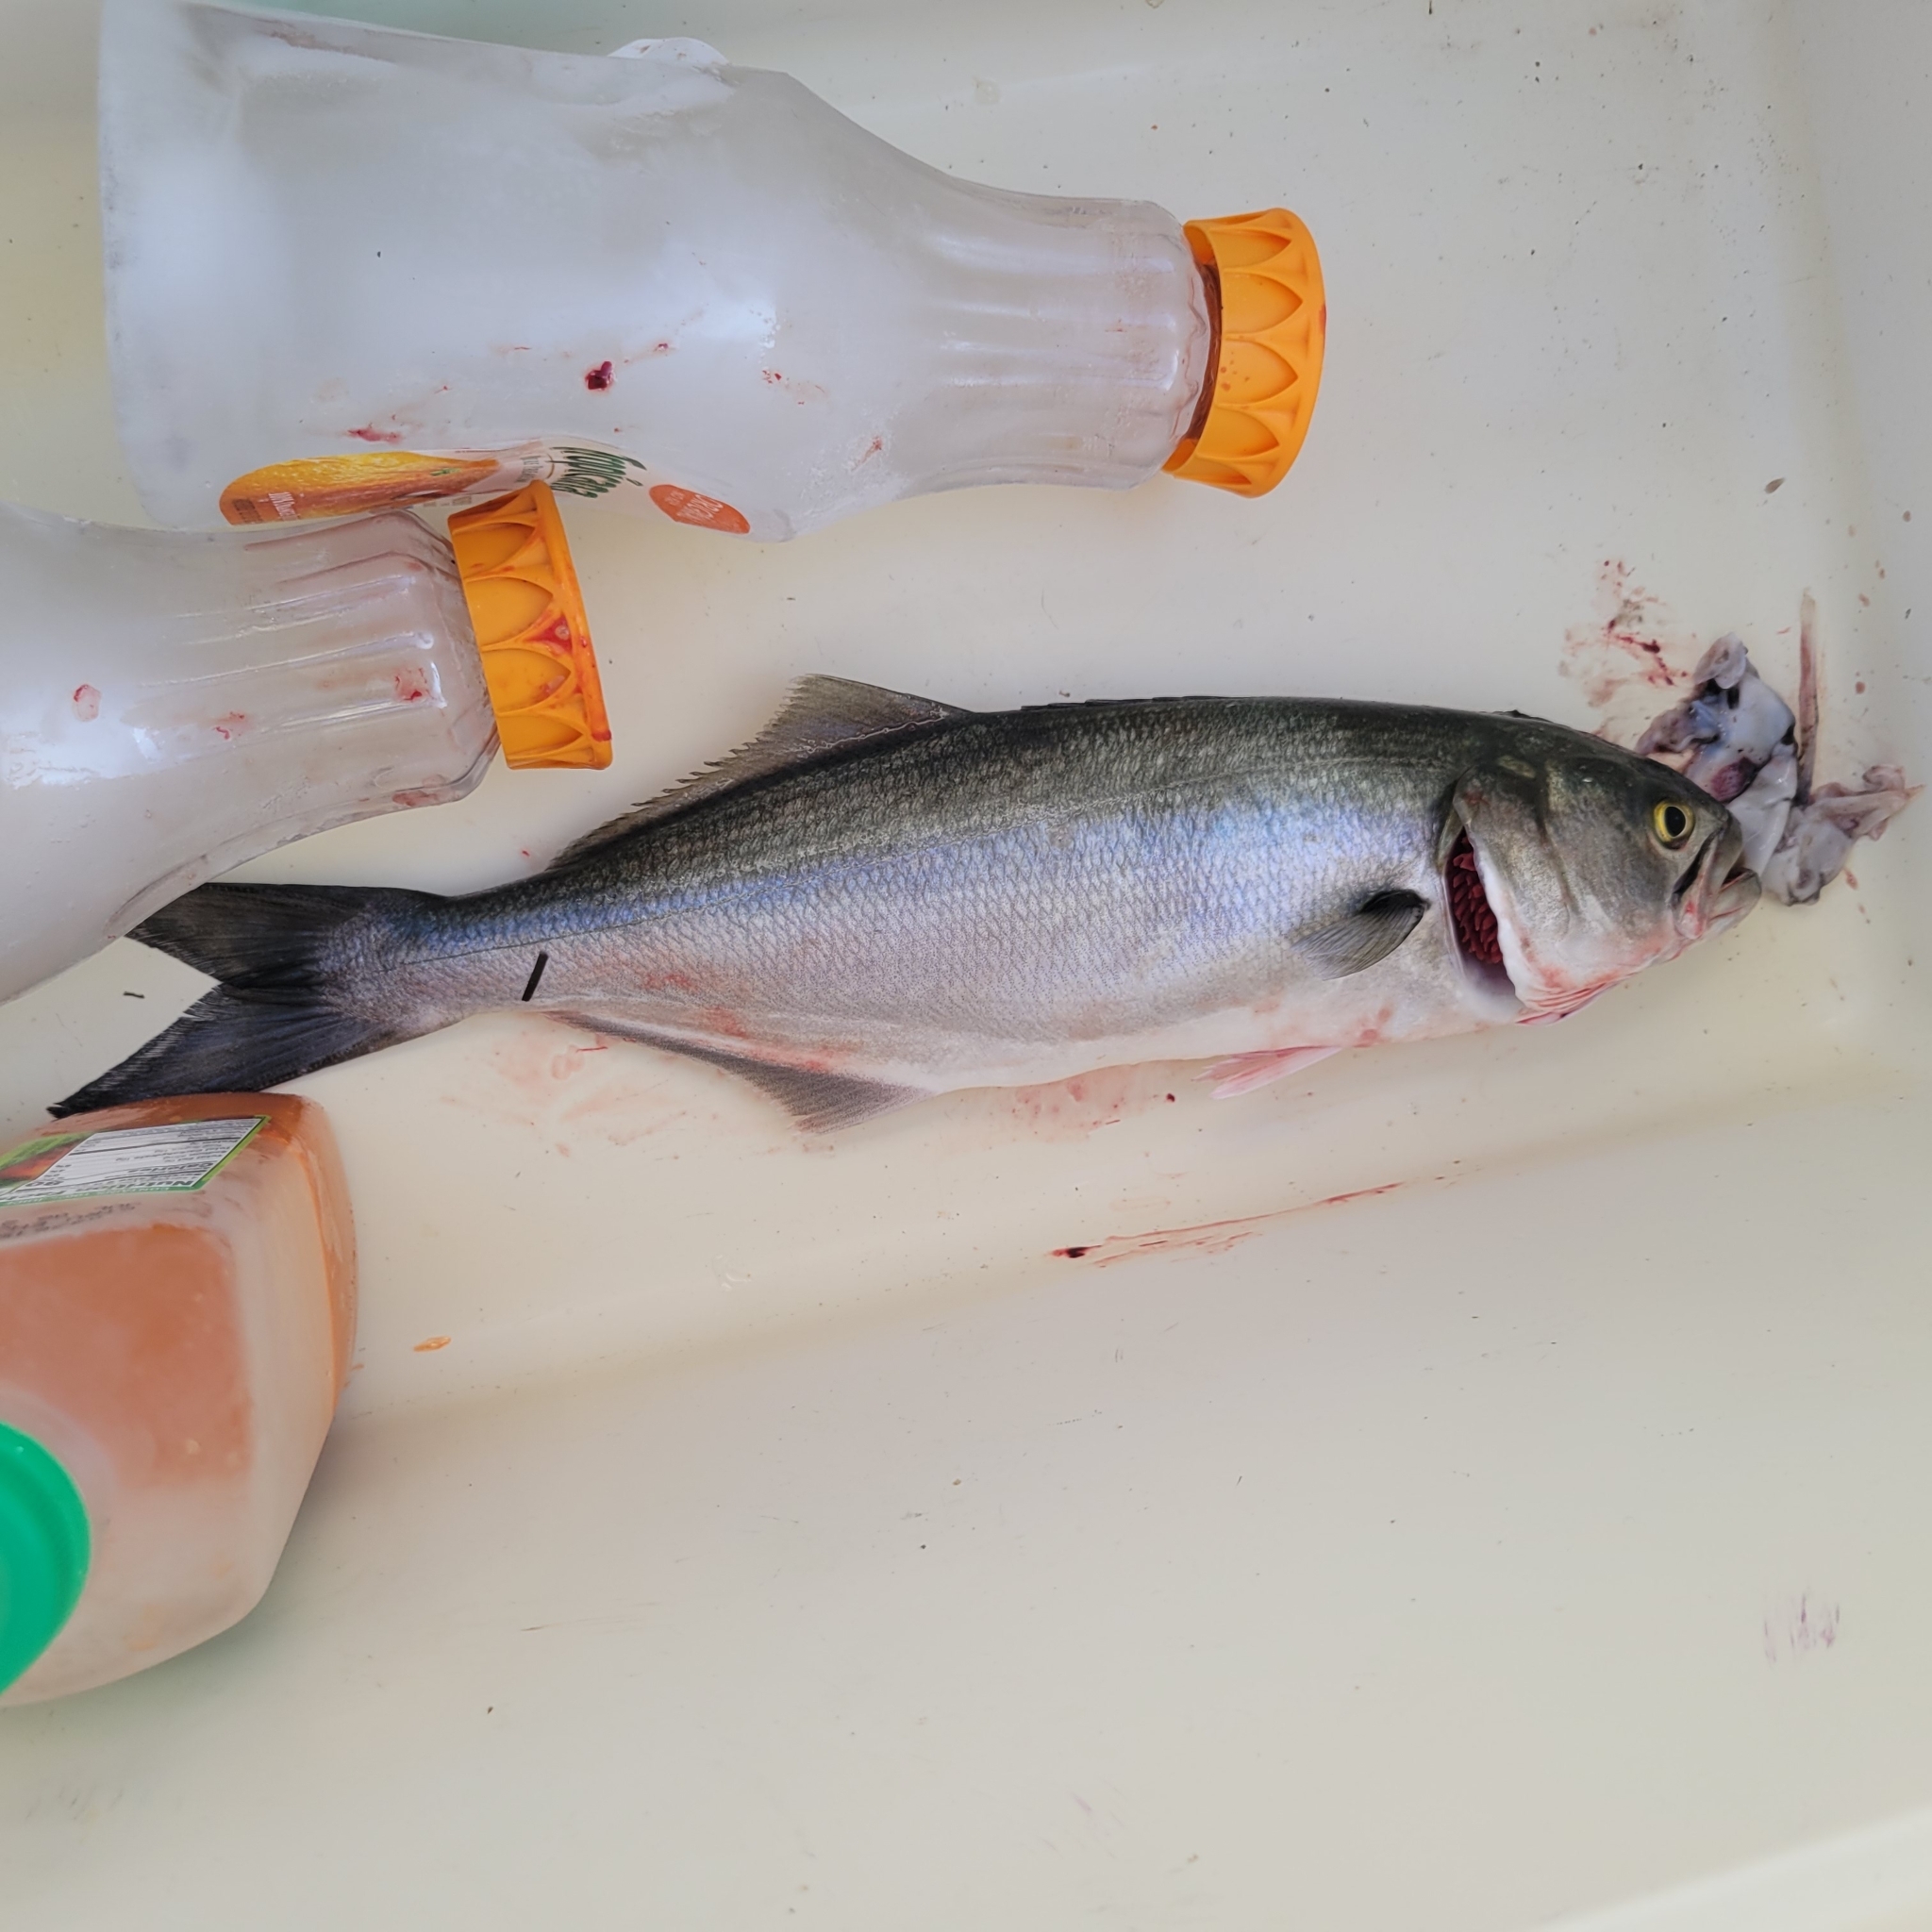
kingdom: Animalia
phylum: Chordata
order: Perciformes
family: Pomatomidae
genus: Pomatomus
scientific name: Pomatomus saltatrix
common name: Bluefish
